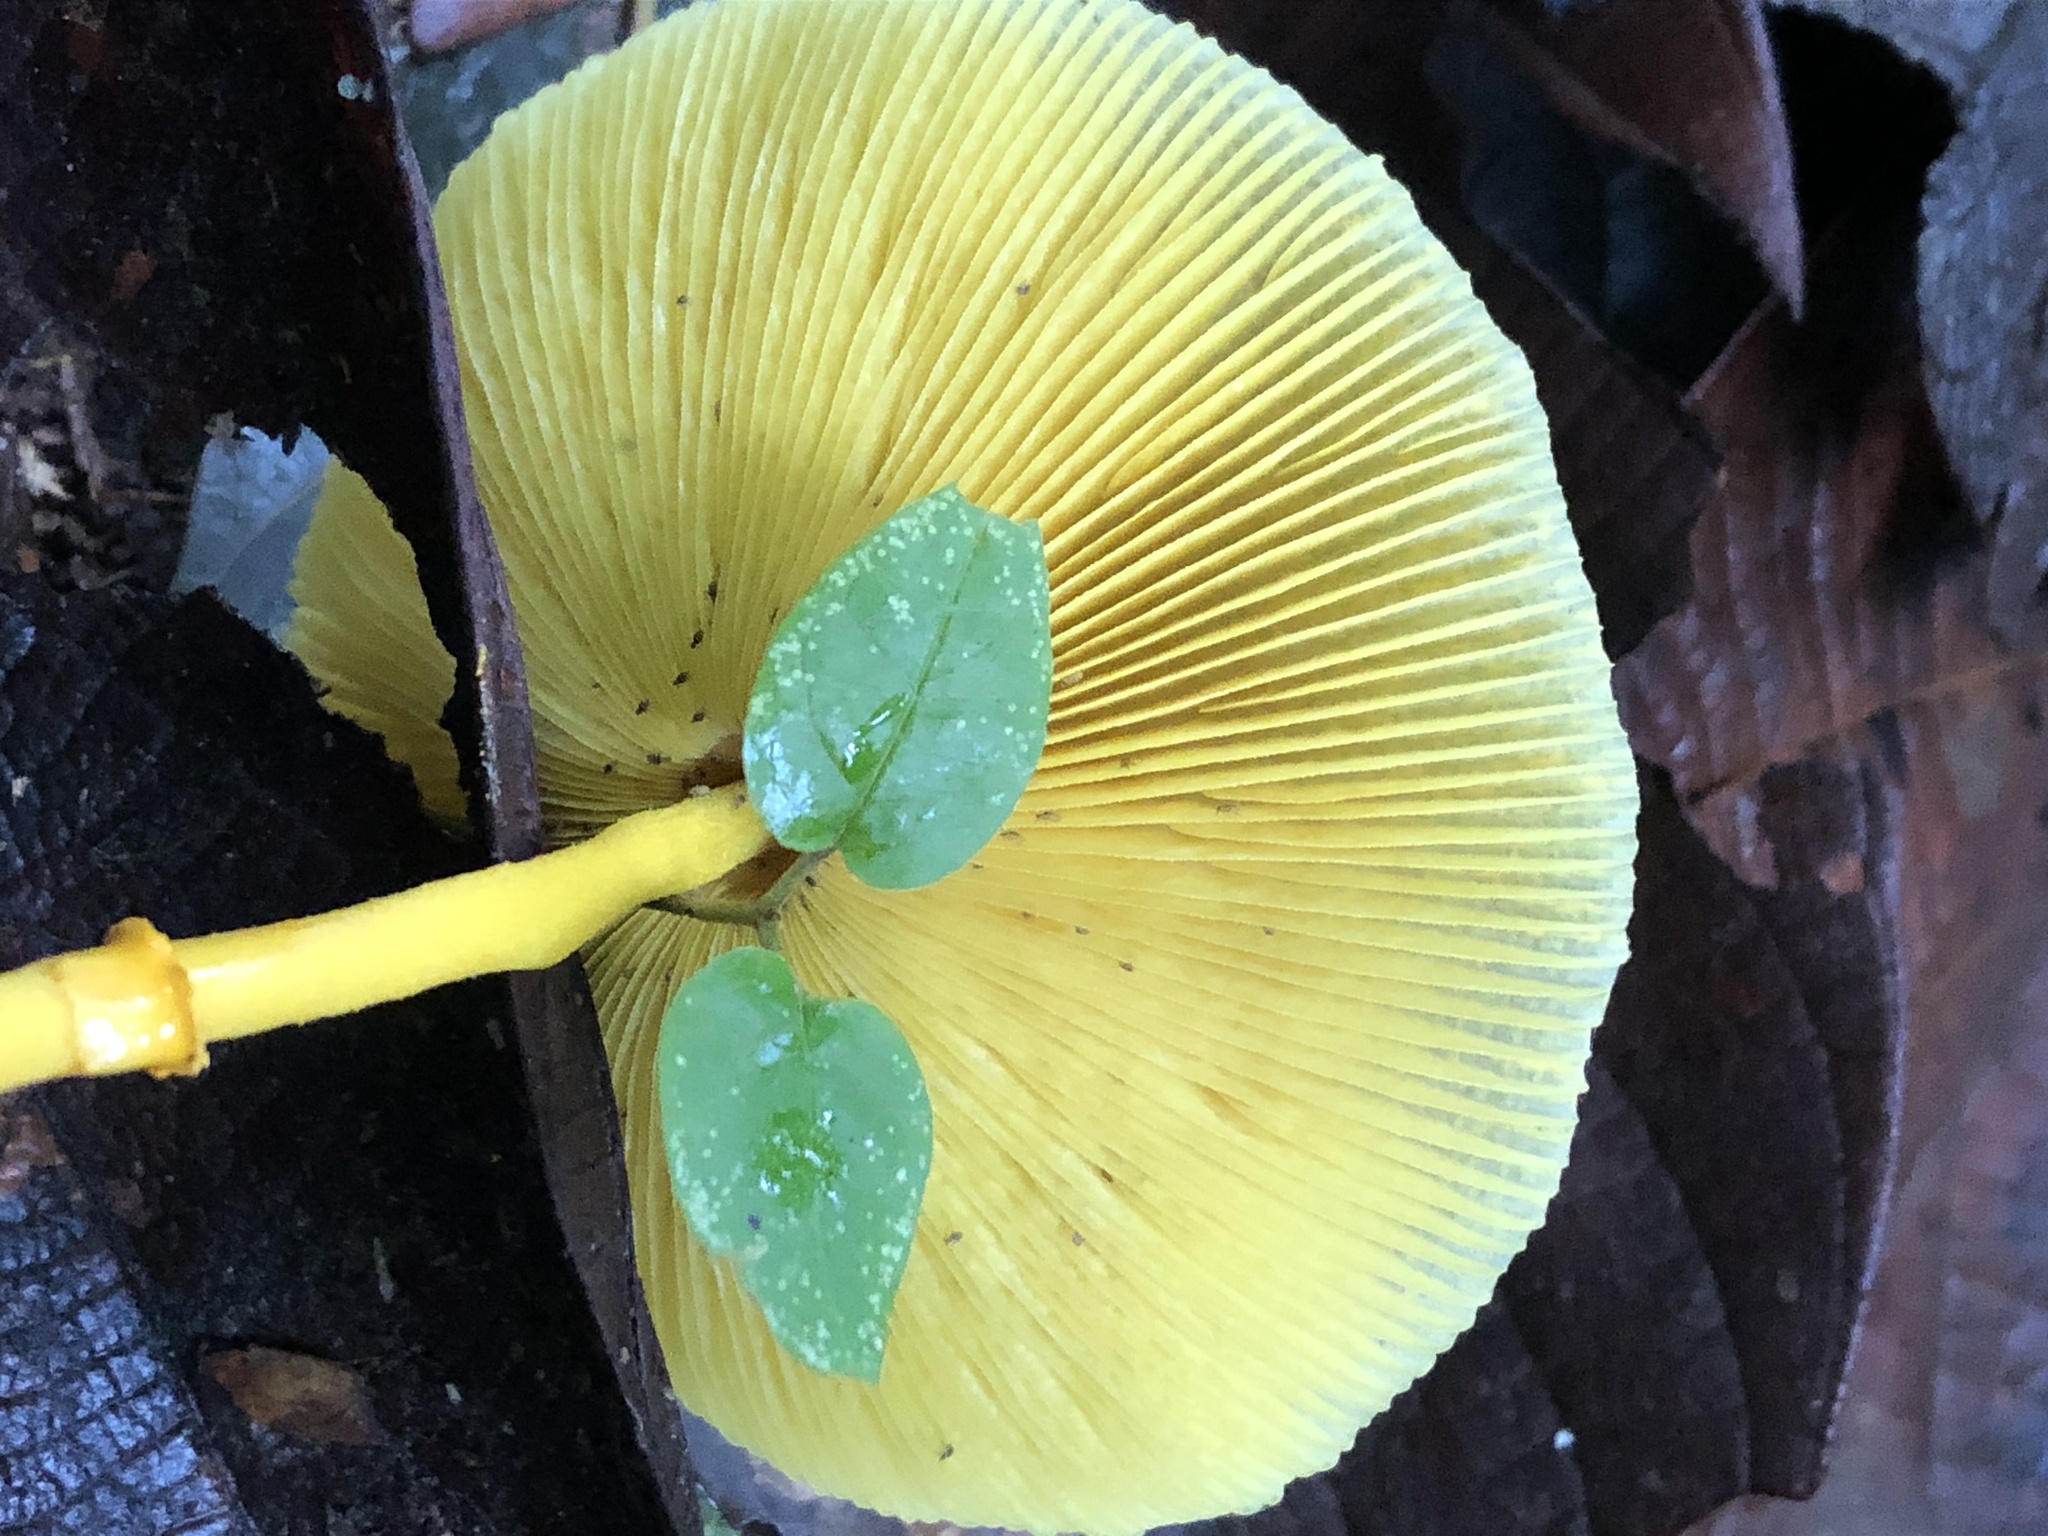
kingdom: Fungi
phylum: Basidiomycota
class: Agaricomycetes
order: Agaricales
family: Agaricaceae
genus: Leucocoprinus
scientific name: Leucocoprinus brunneoluteus
